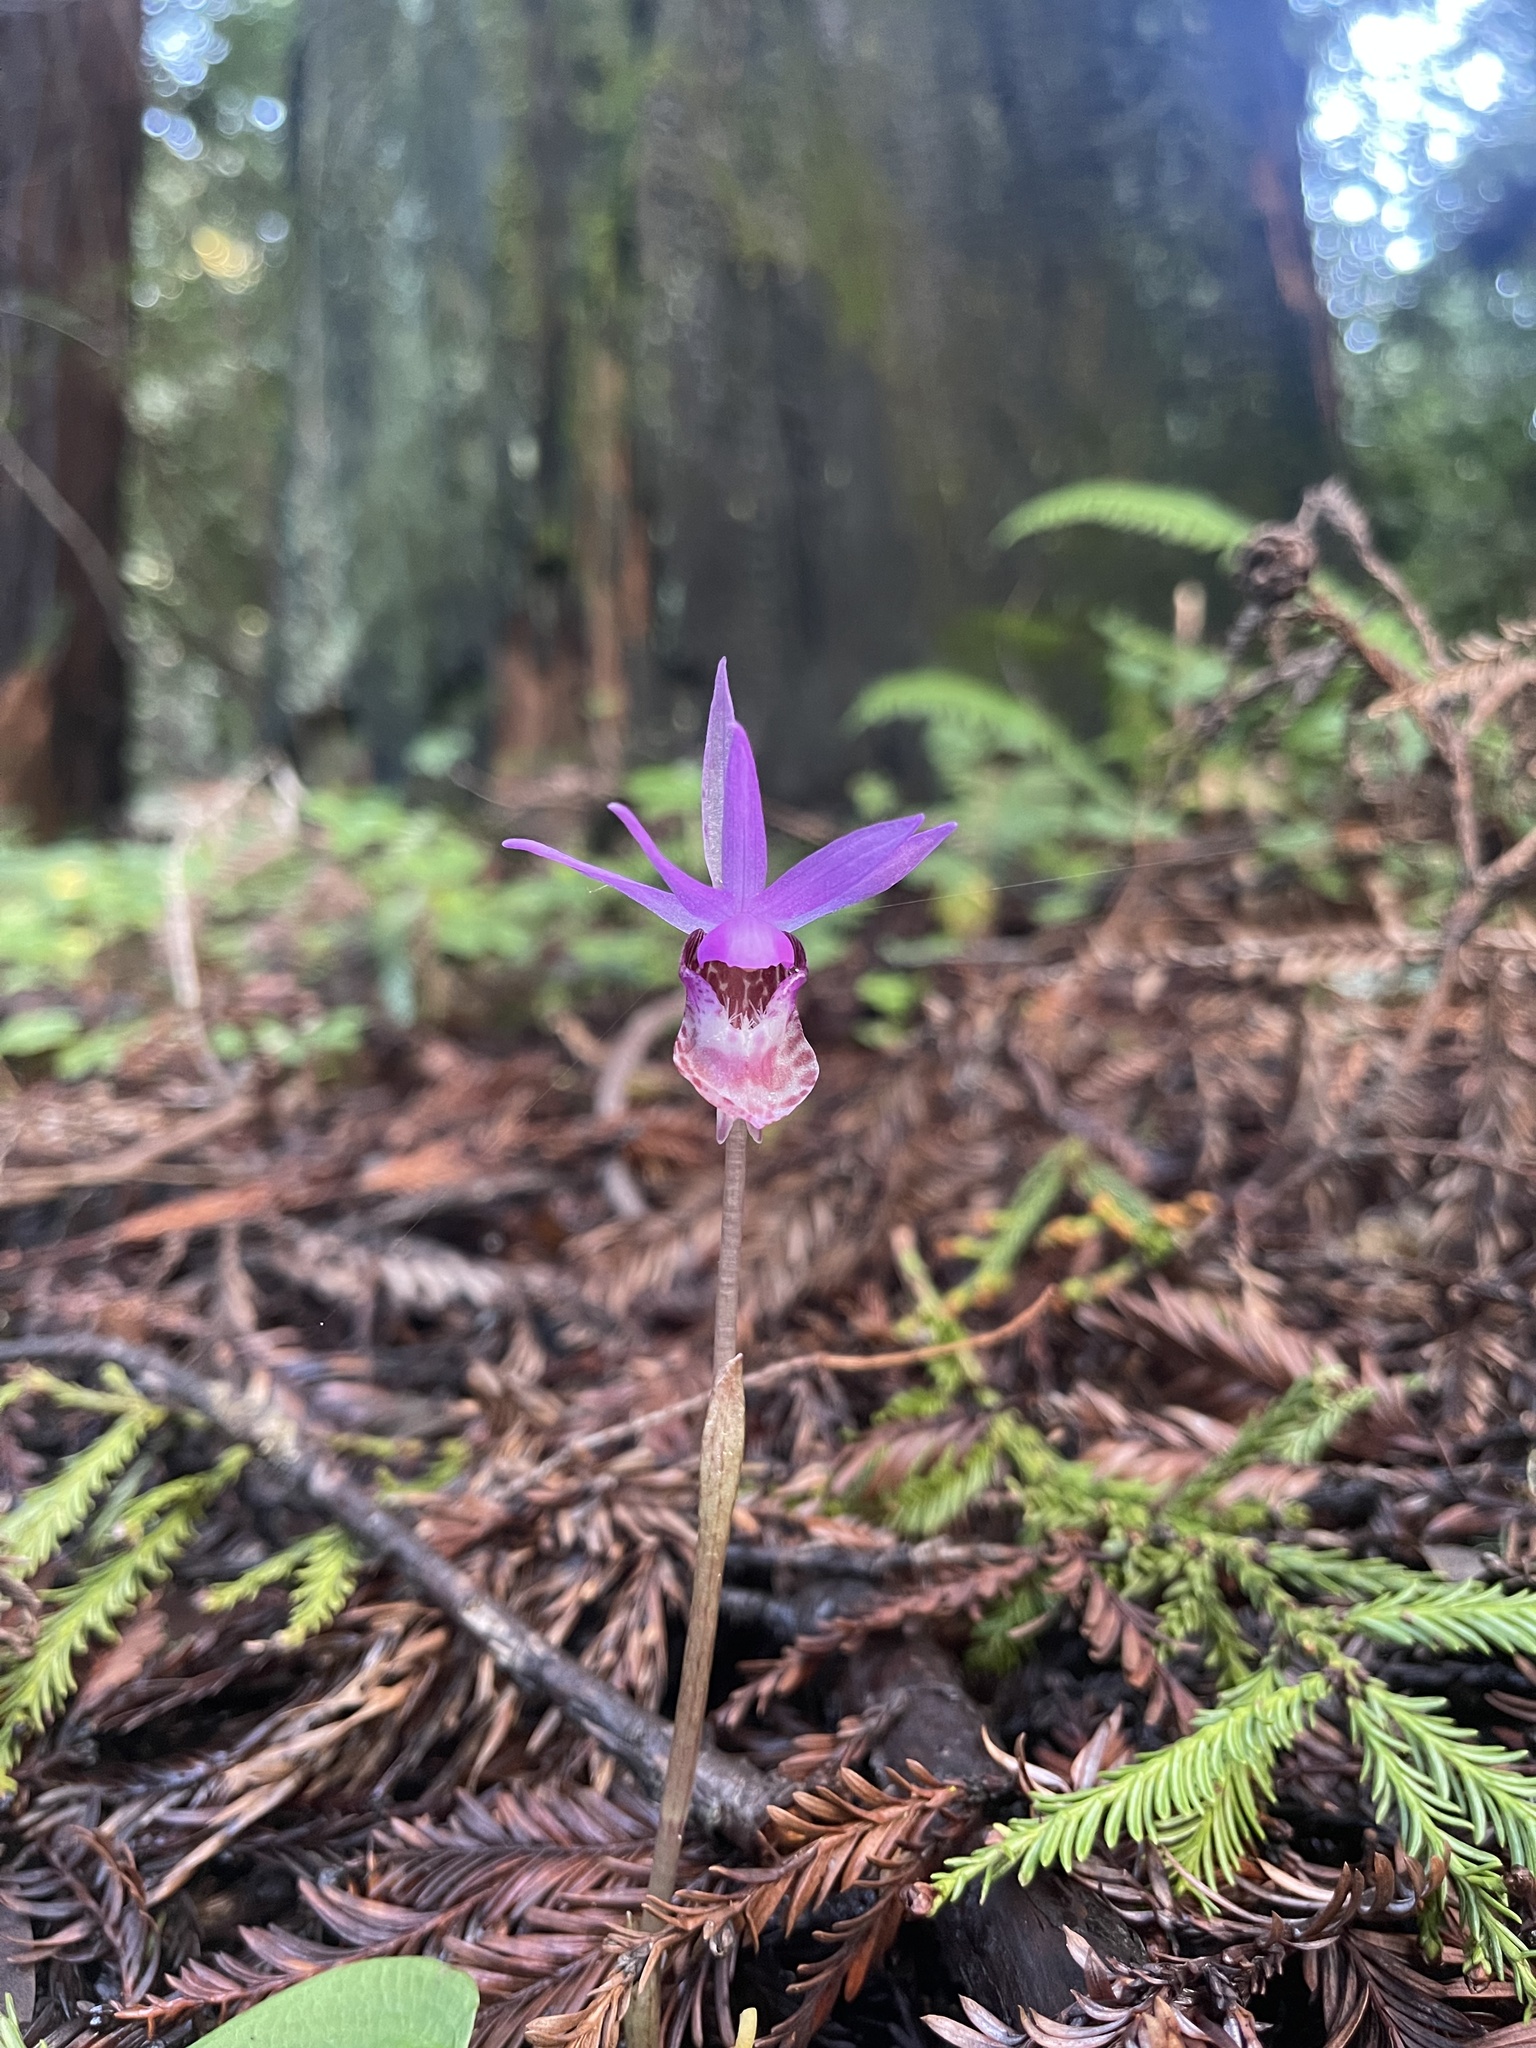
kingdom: Plantae
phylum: Tracheophyta
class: Liliopsida
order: Asparagales
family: Orchidaceae
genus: Calypso
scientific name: Calypso bulbosa
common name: Calypso
